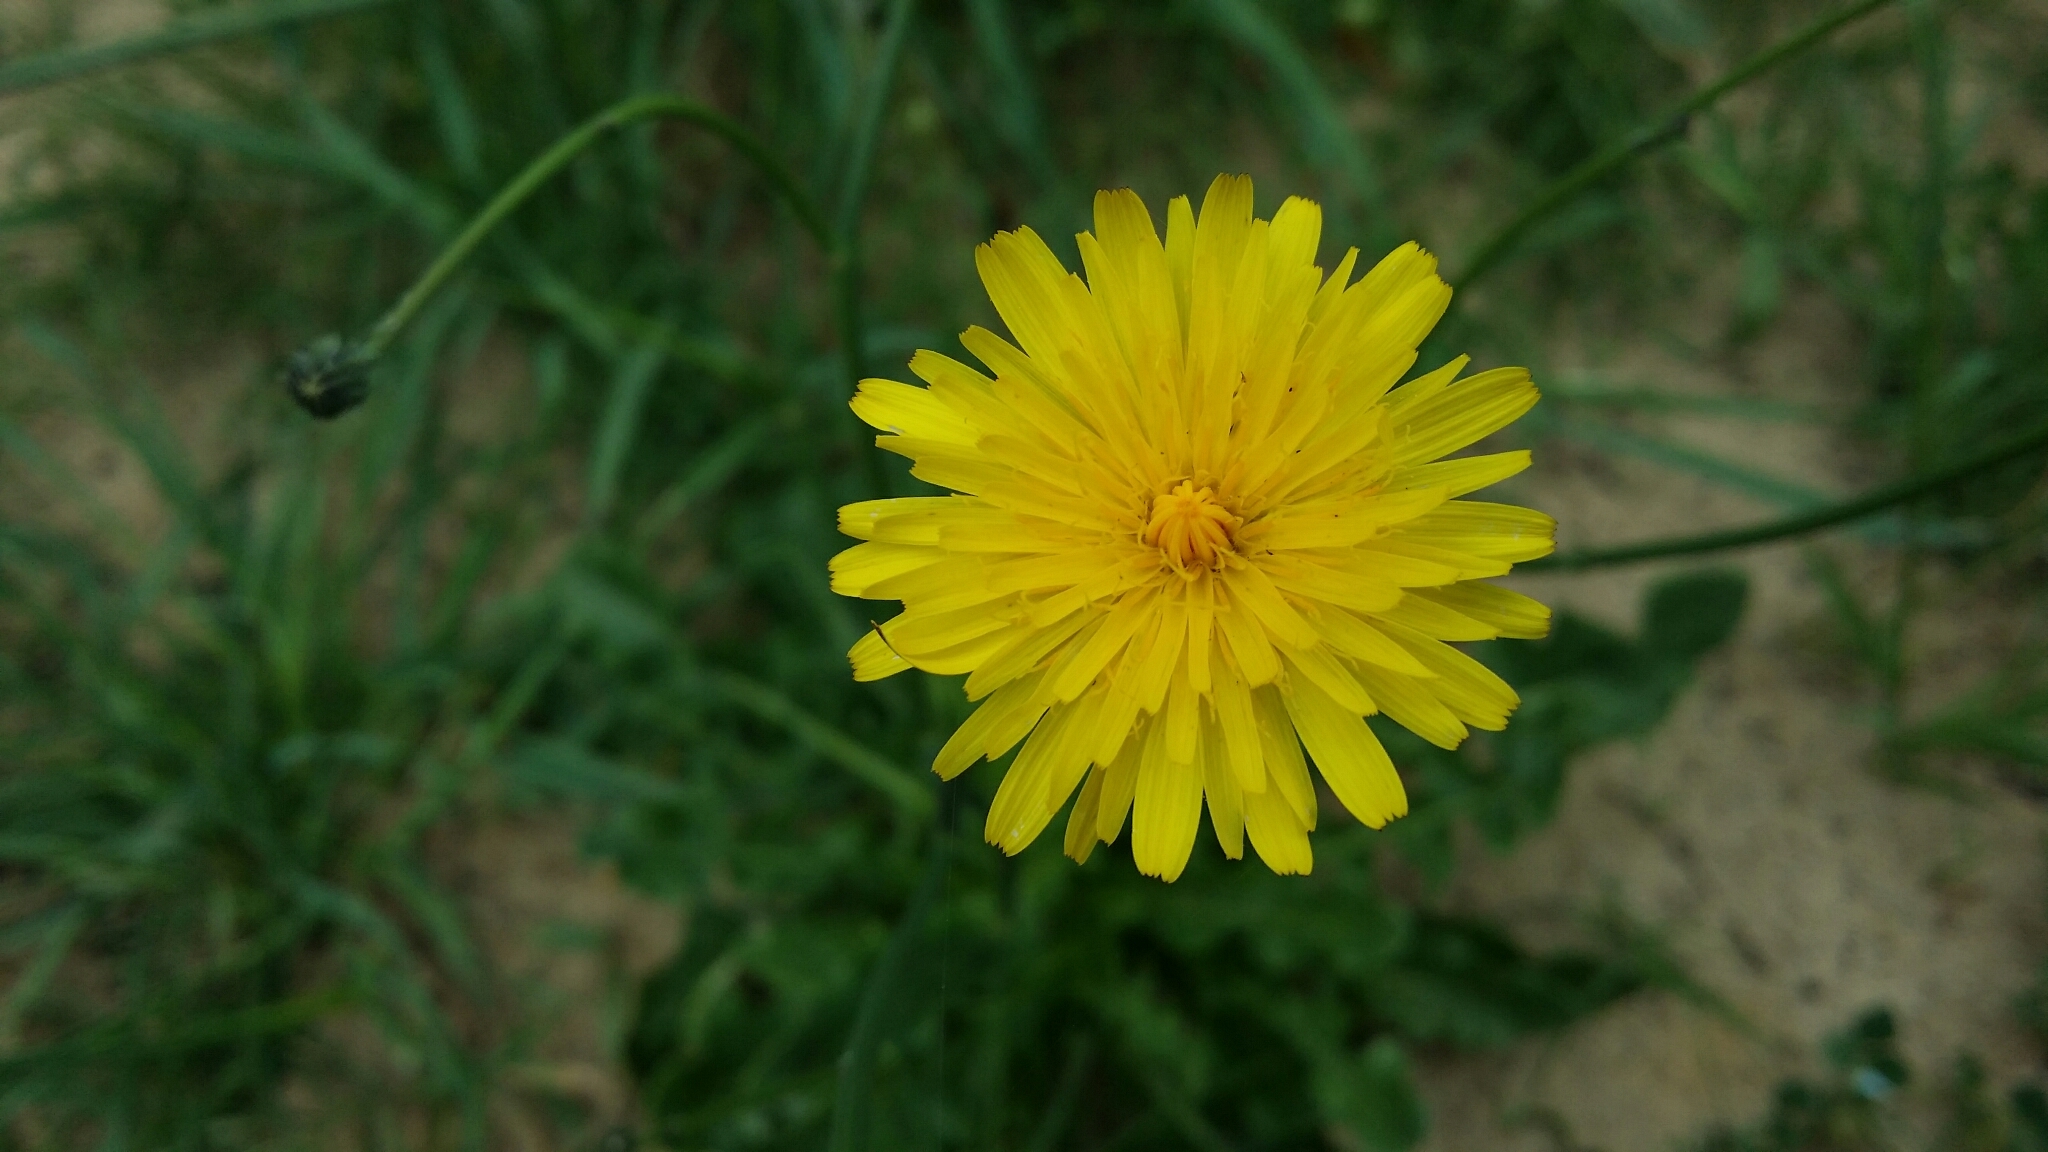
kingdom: Plantae
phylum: Tracheophyta
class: Magnoliopsida
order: Asterales
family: Asteraceae
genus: Hypochaeris
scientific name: Hypochaeris radicata
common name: Flatweed
